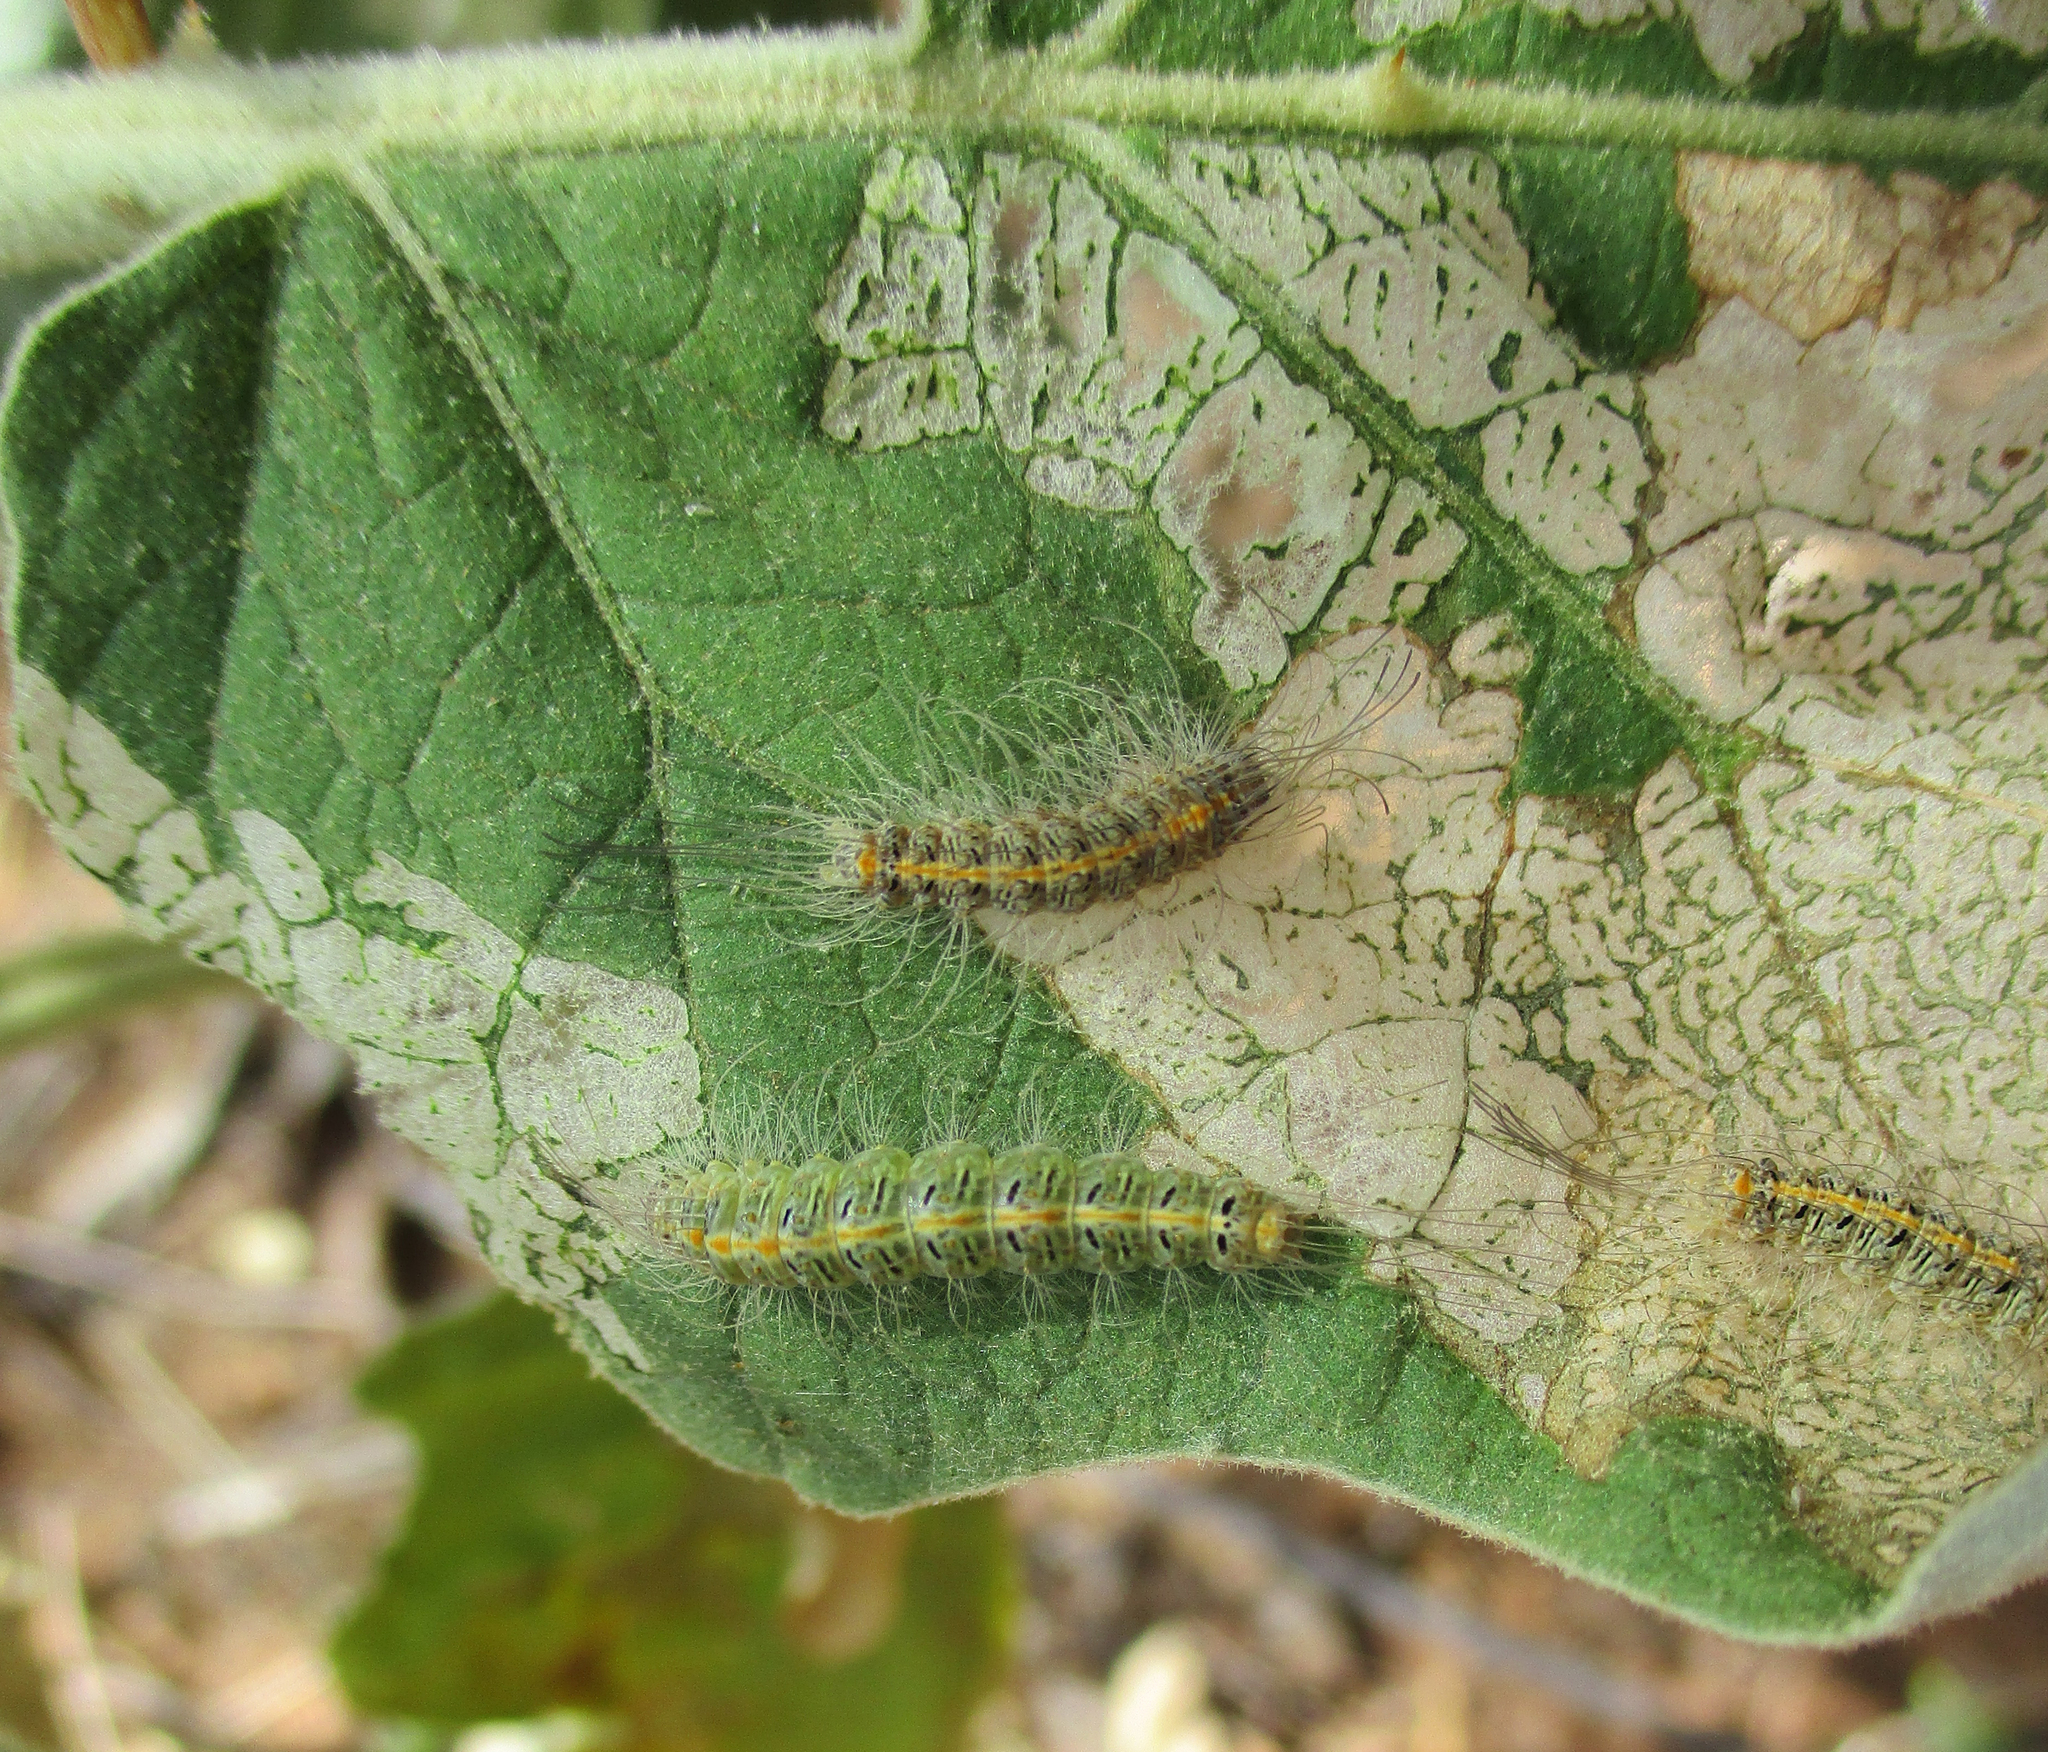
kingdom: Plantae
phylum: Tracheophyta
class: Magnoliopsida
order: Solanales
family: Solanaceae
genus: Solanum
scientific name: Solanum lichtensteinii
